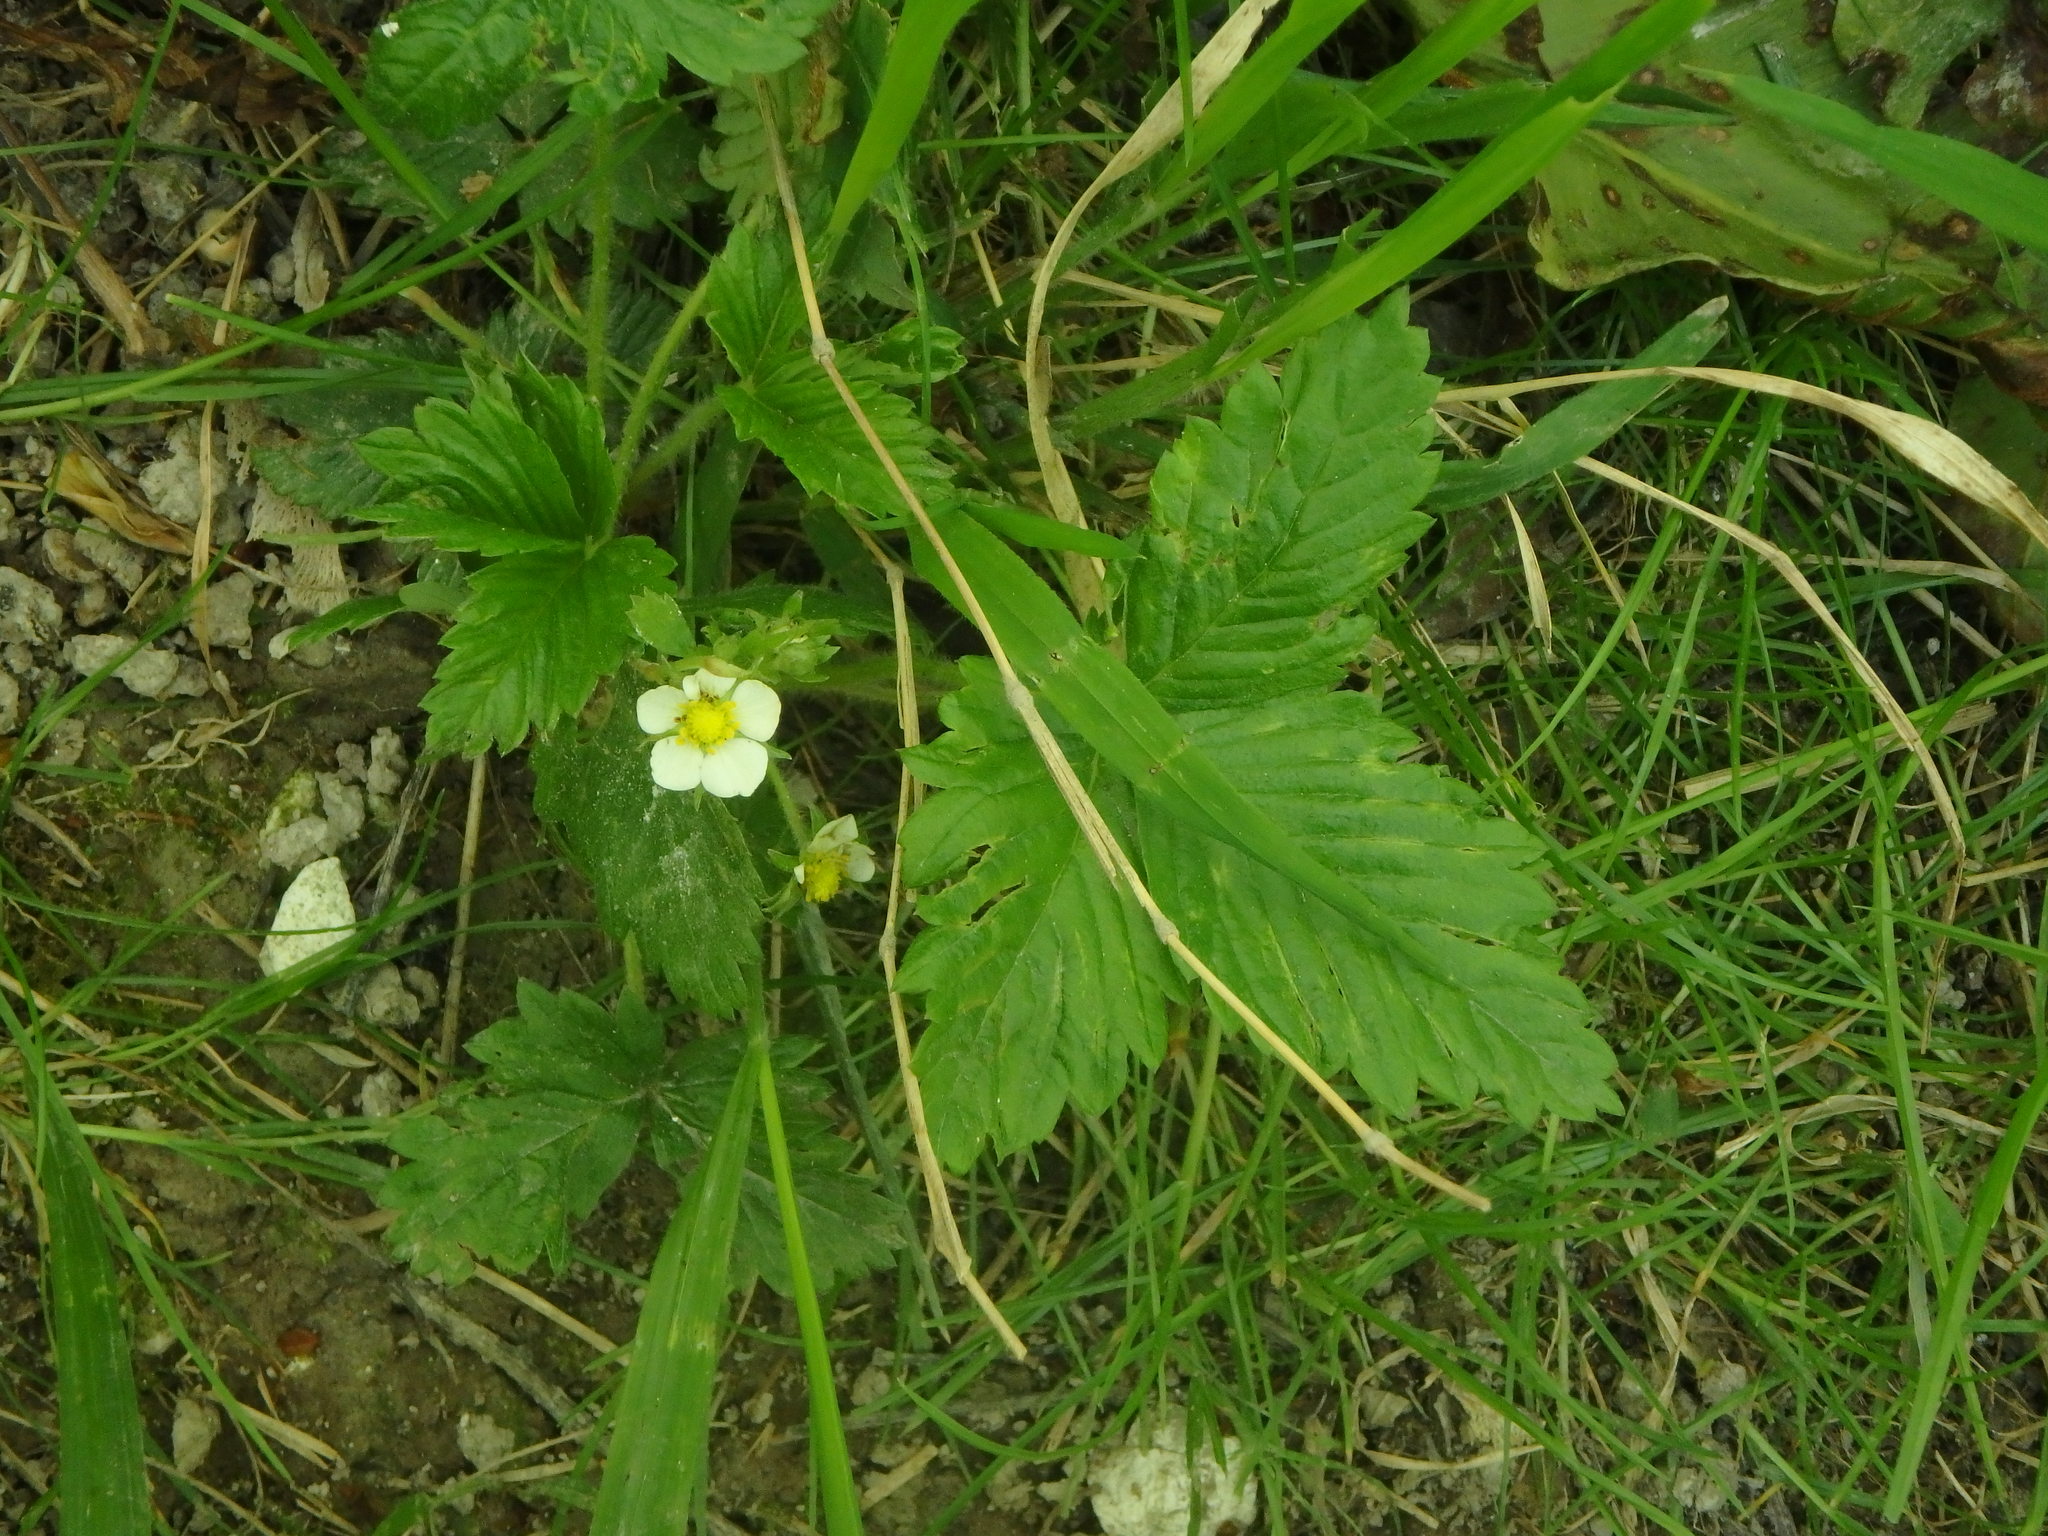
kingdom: Plantae
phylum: Tracheophyta
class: Magnoliopsida
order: Rosales
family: Rosaceae
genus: Fragaria
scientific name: Fragaria vesca
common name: Wild strawberry
